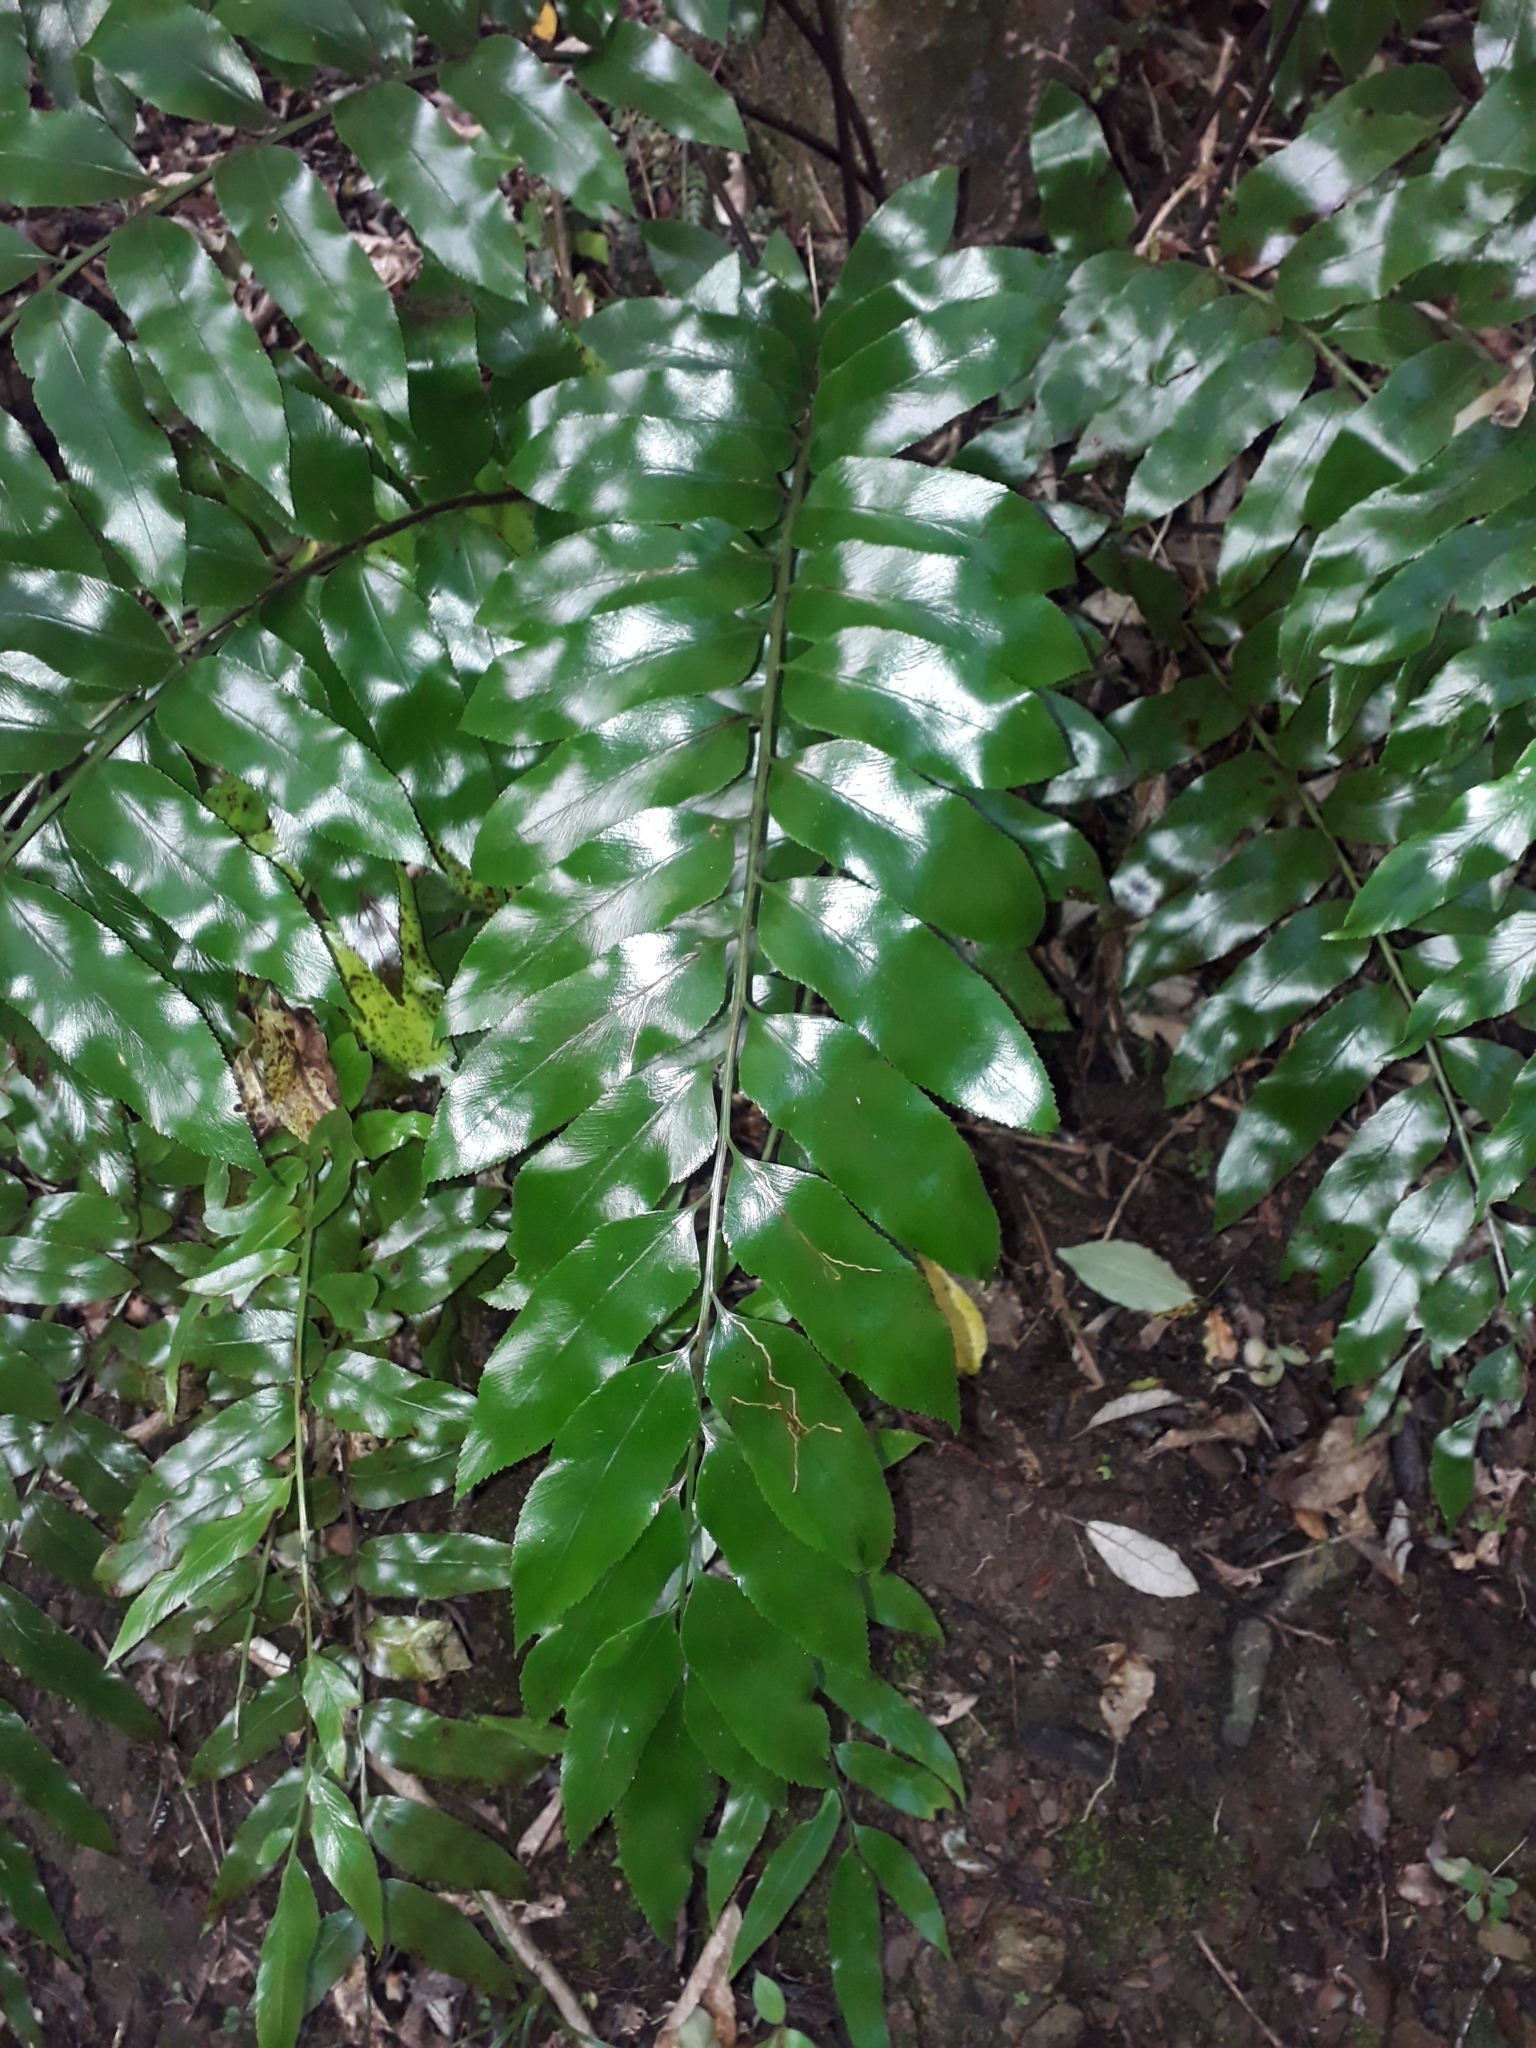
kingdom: Plantae
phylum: Tracheophyta
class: Polypodiopsida
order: Polypodiales
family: Aspleniaceae
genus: Asplenium
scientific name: Asplenium oblongifolium
